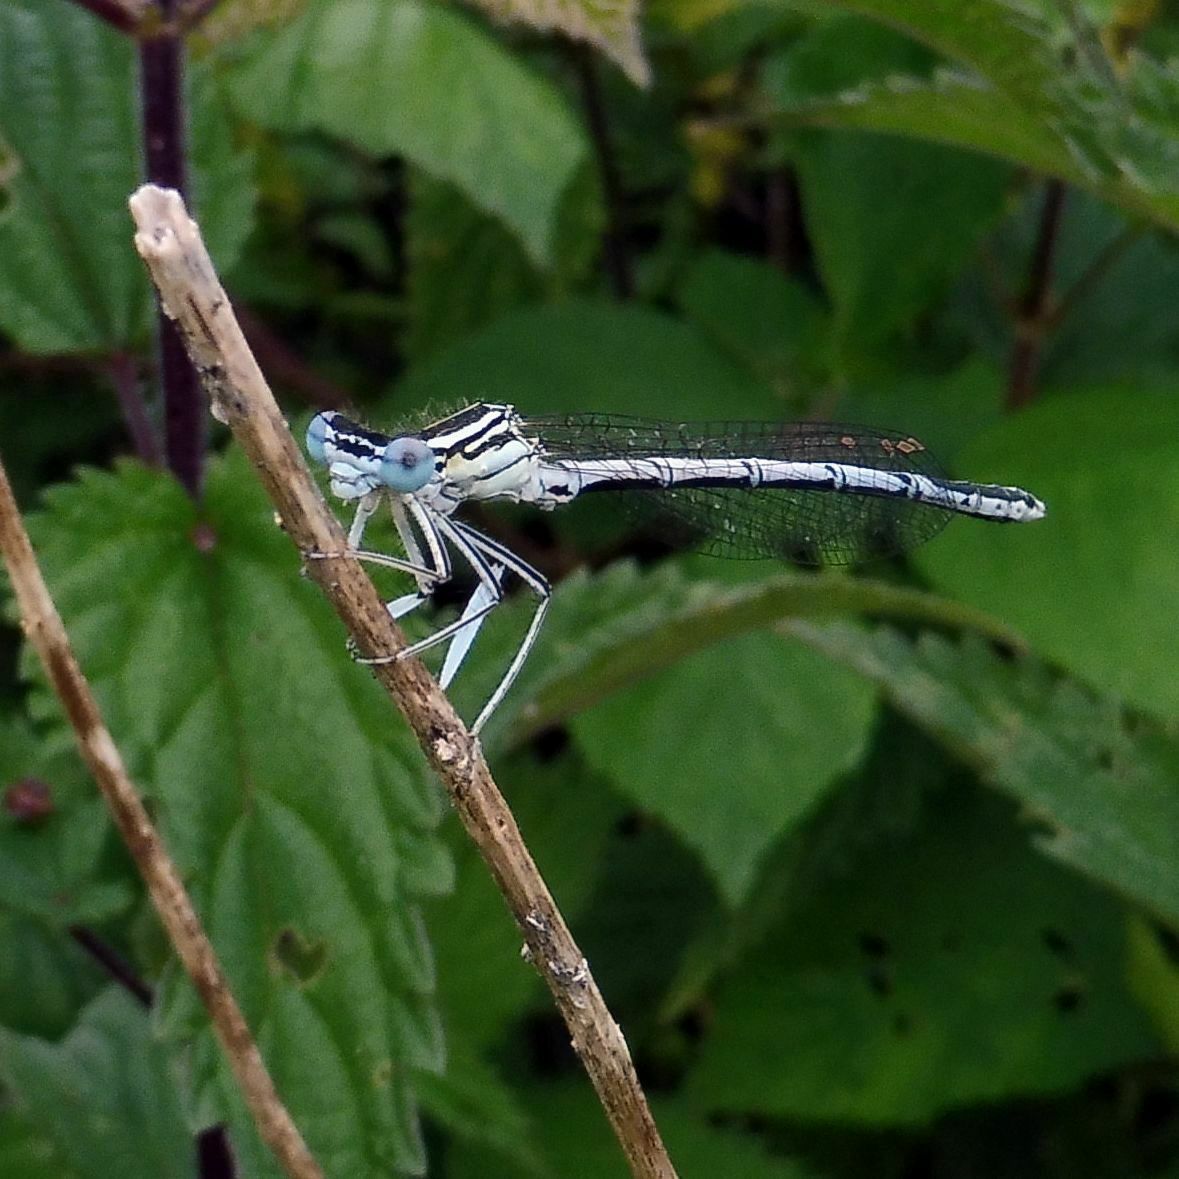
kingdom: Animalia
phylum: Arthropoda
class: Insecta
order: Odonata
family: Platycnemididae
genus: Platycnemis
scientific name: Platycnemis pennipes
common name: White-legged damselfly
